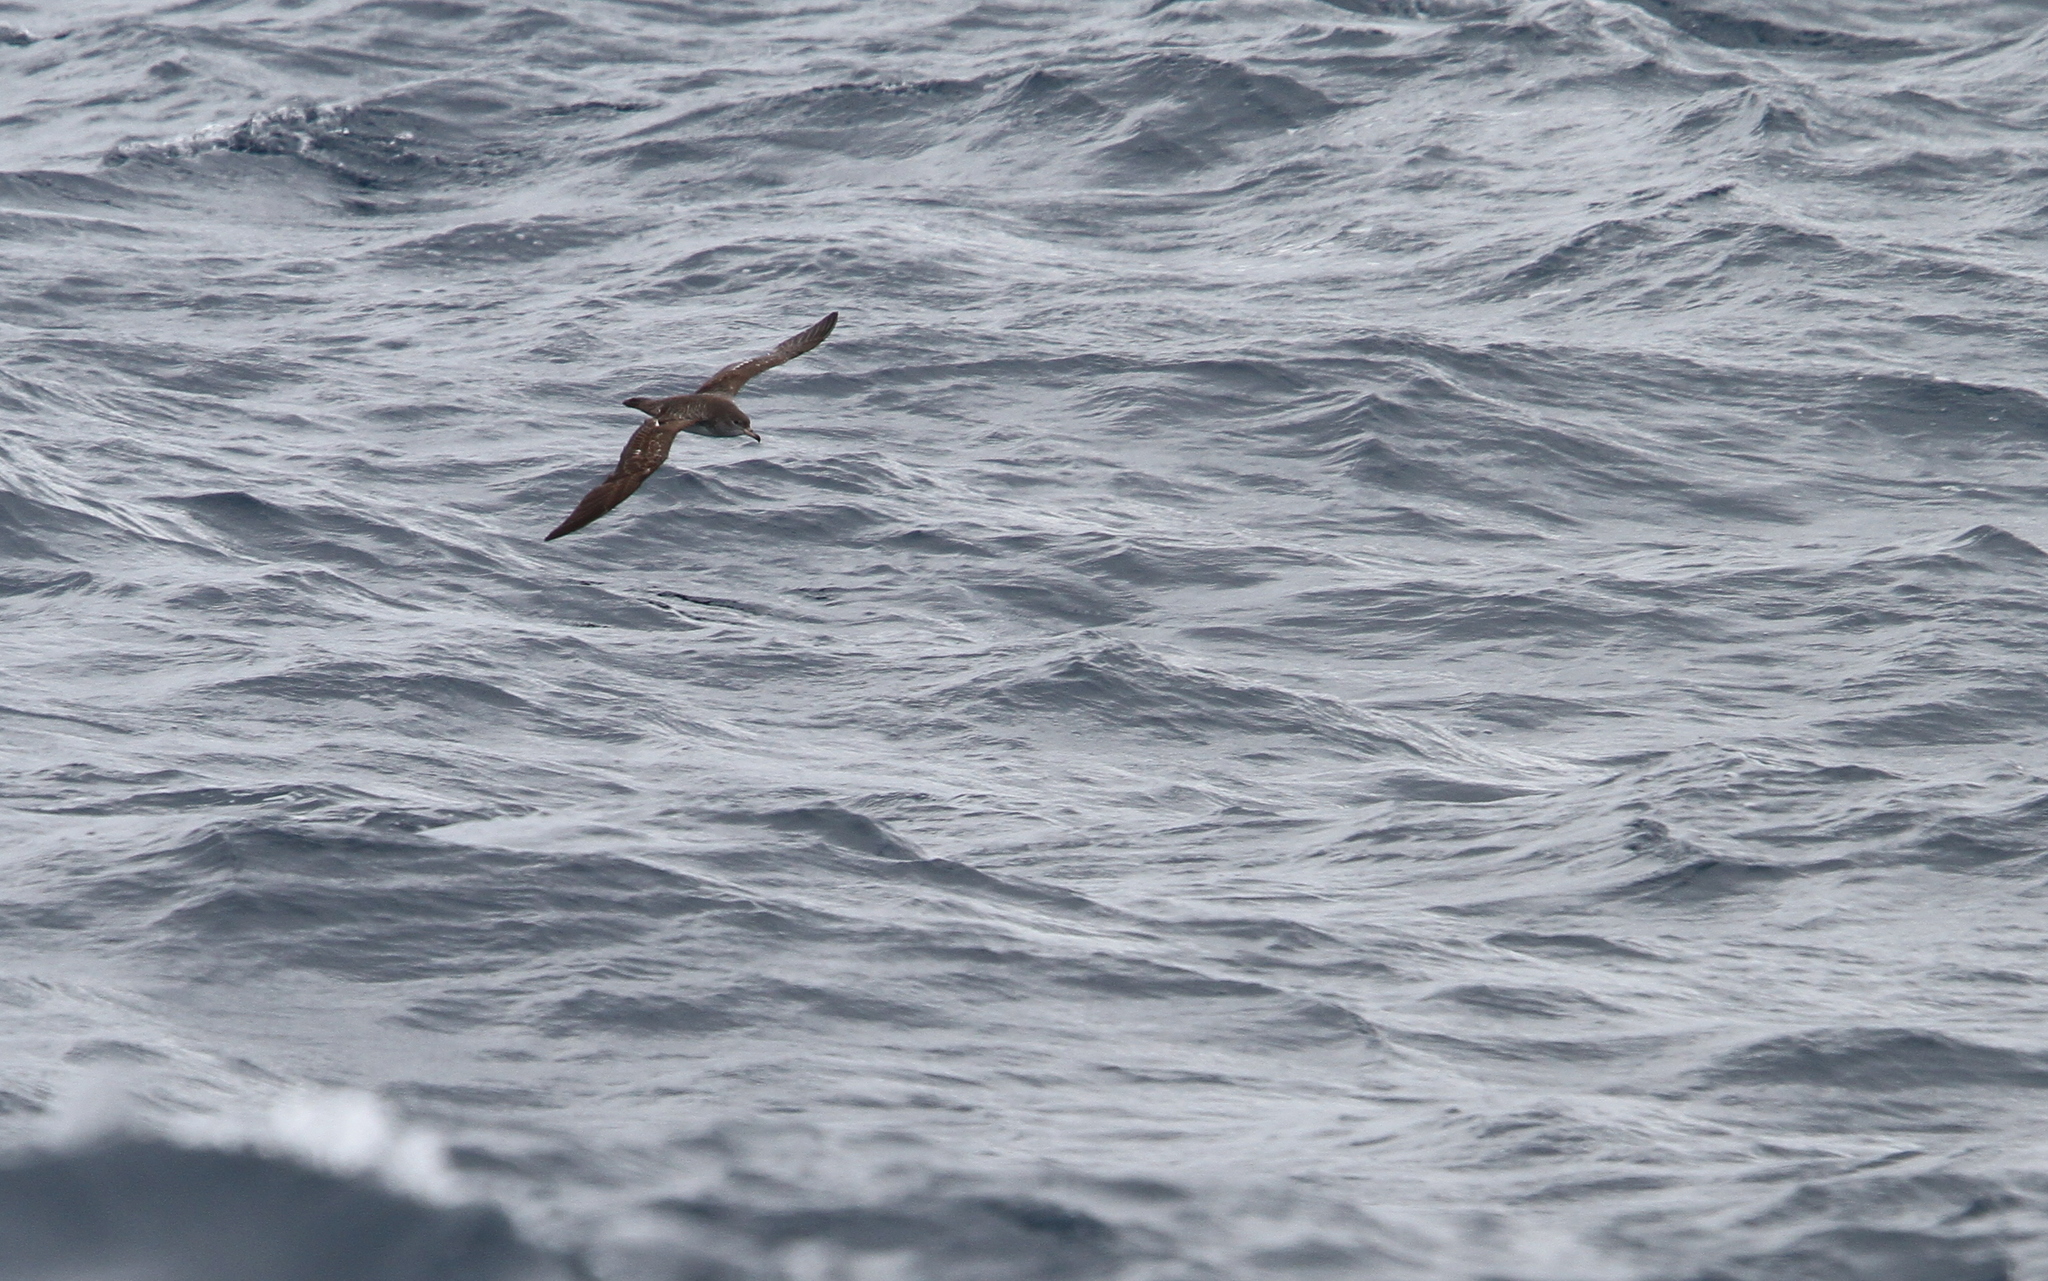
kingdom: Animalia
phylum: Chordata
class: Aves
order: Procellariiformes
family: Procellariidae
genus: Puffinus
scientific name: Puffinus creatopus
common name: Pink-footed shearwater
